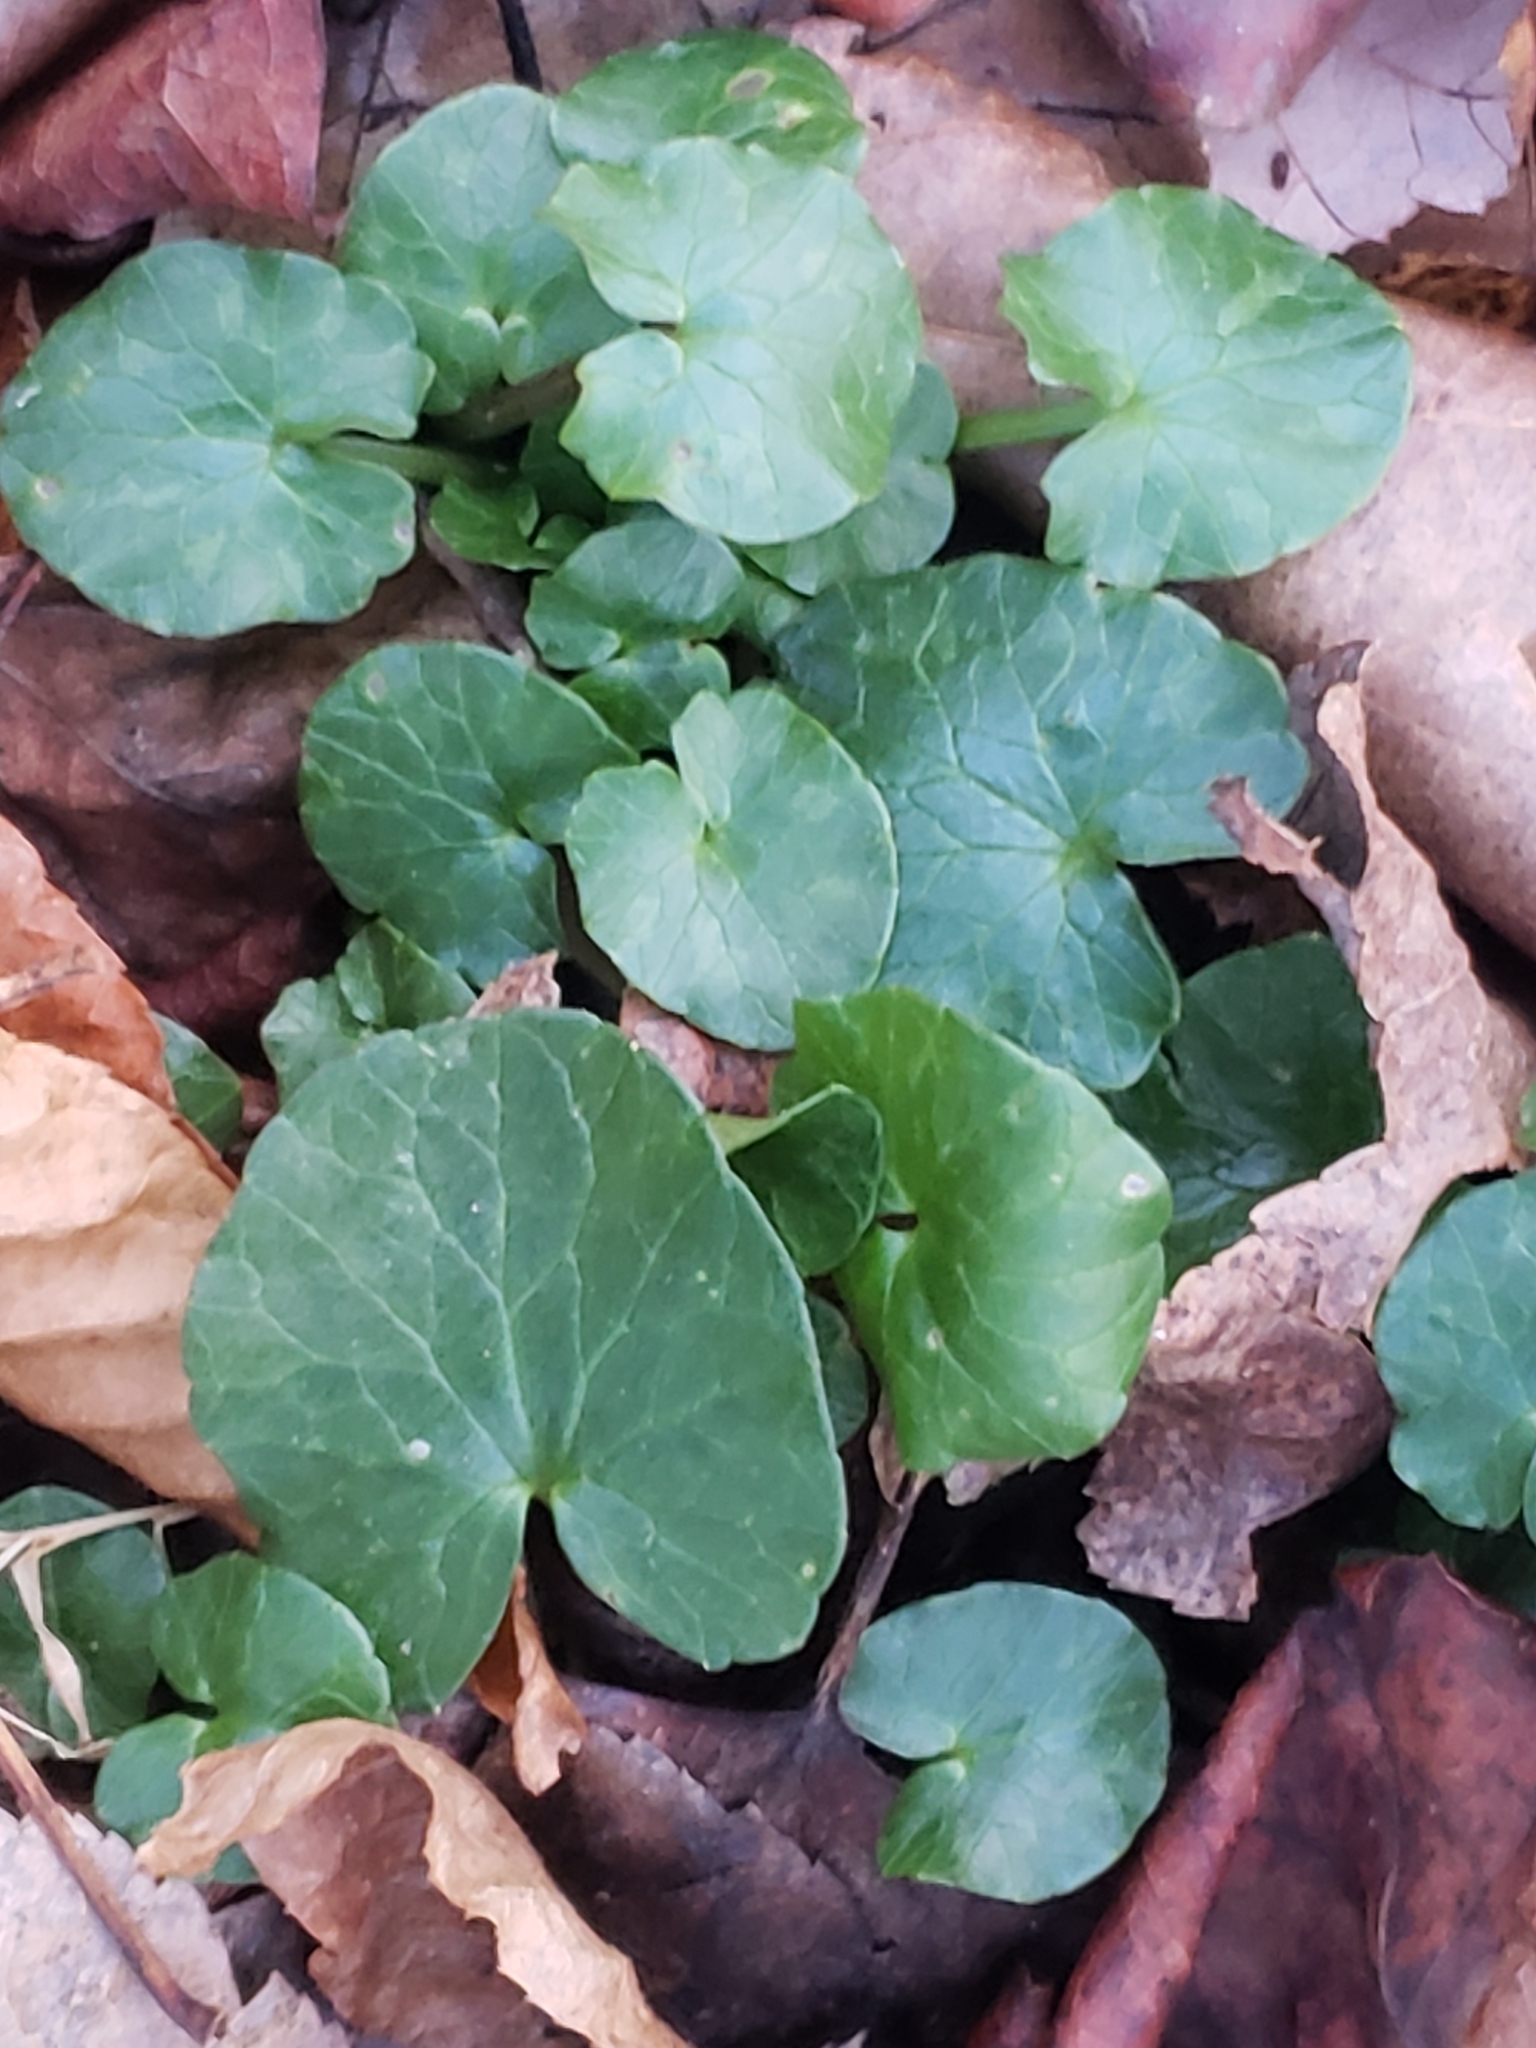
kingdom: Plantae
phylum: Tracheophyta
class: Magnoliopsida
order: Ranunculales
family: Ranunculaceae
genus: Ficaria
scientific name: Ficaria verna
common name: Lesser celandine
